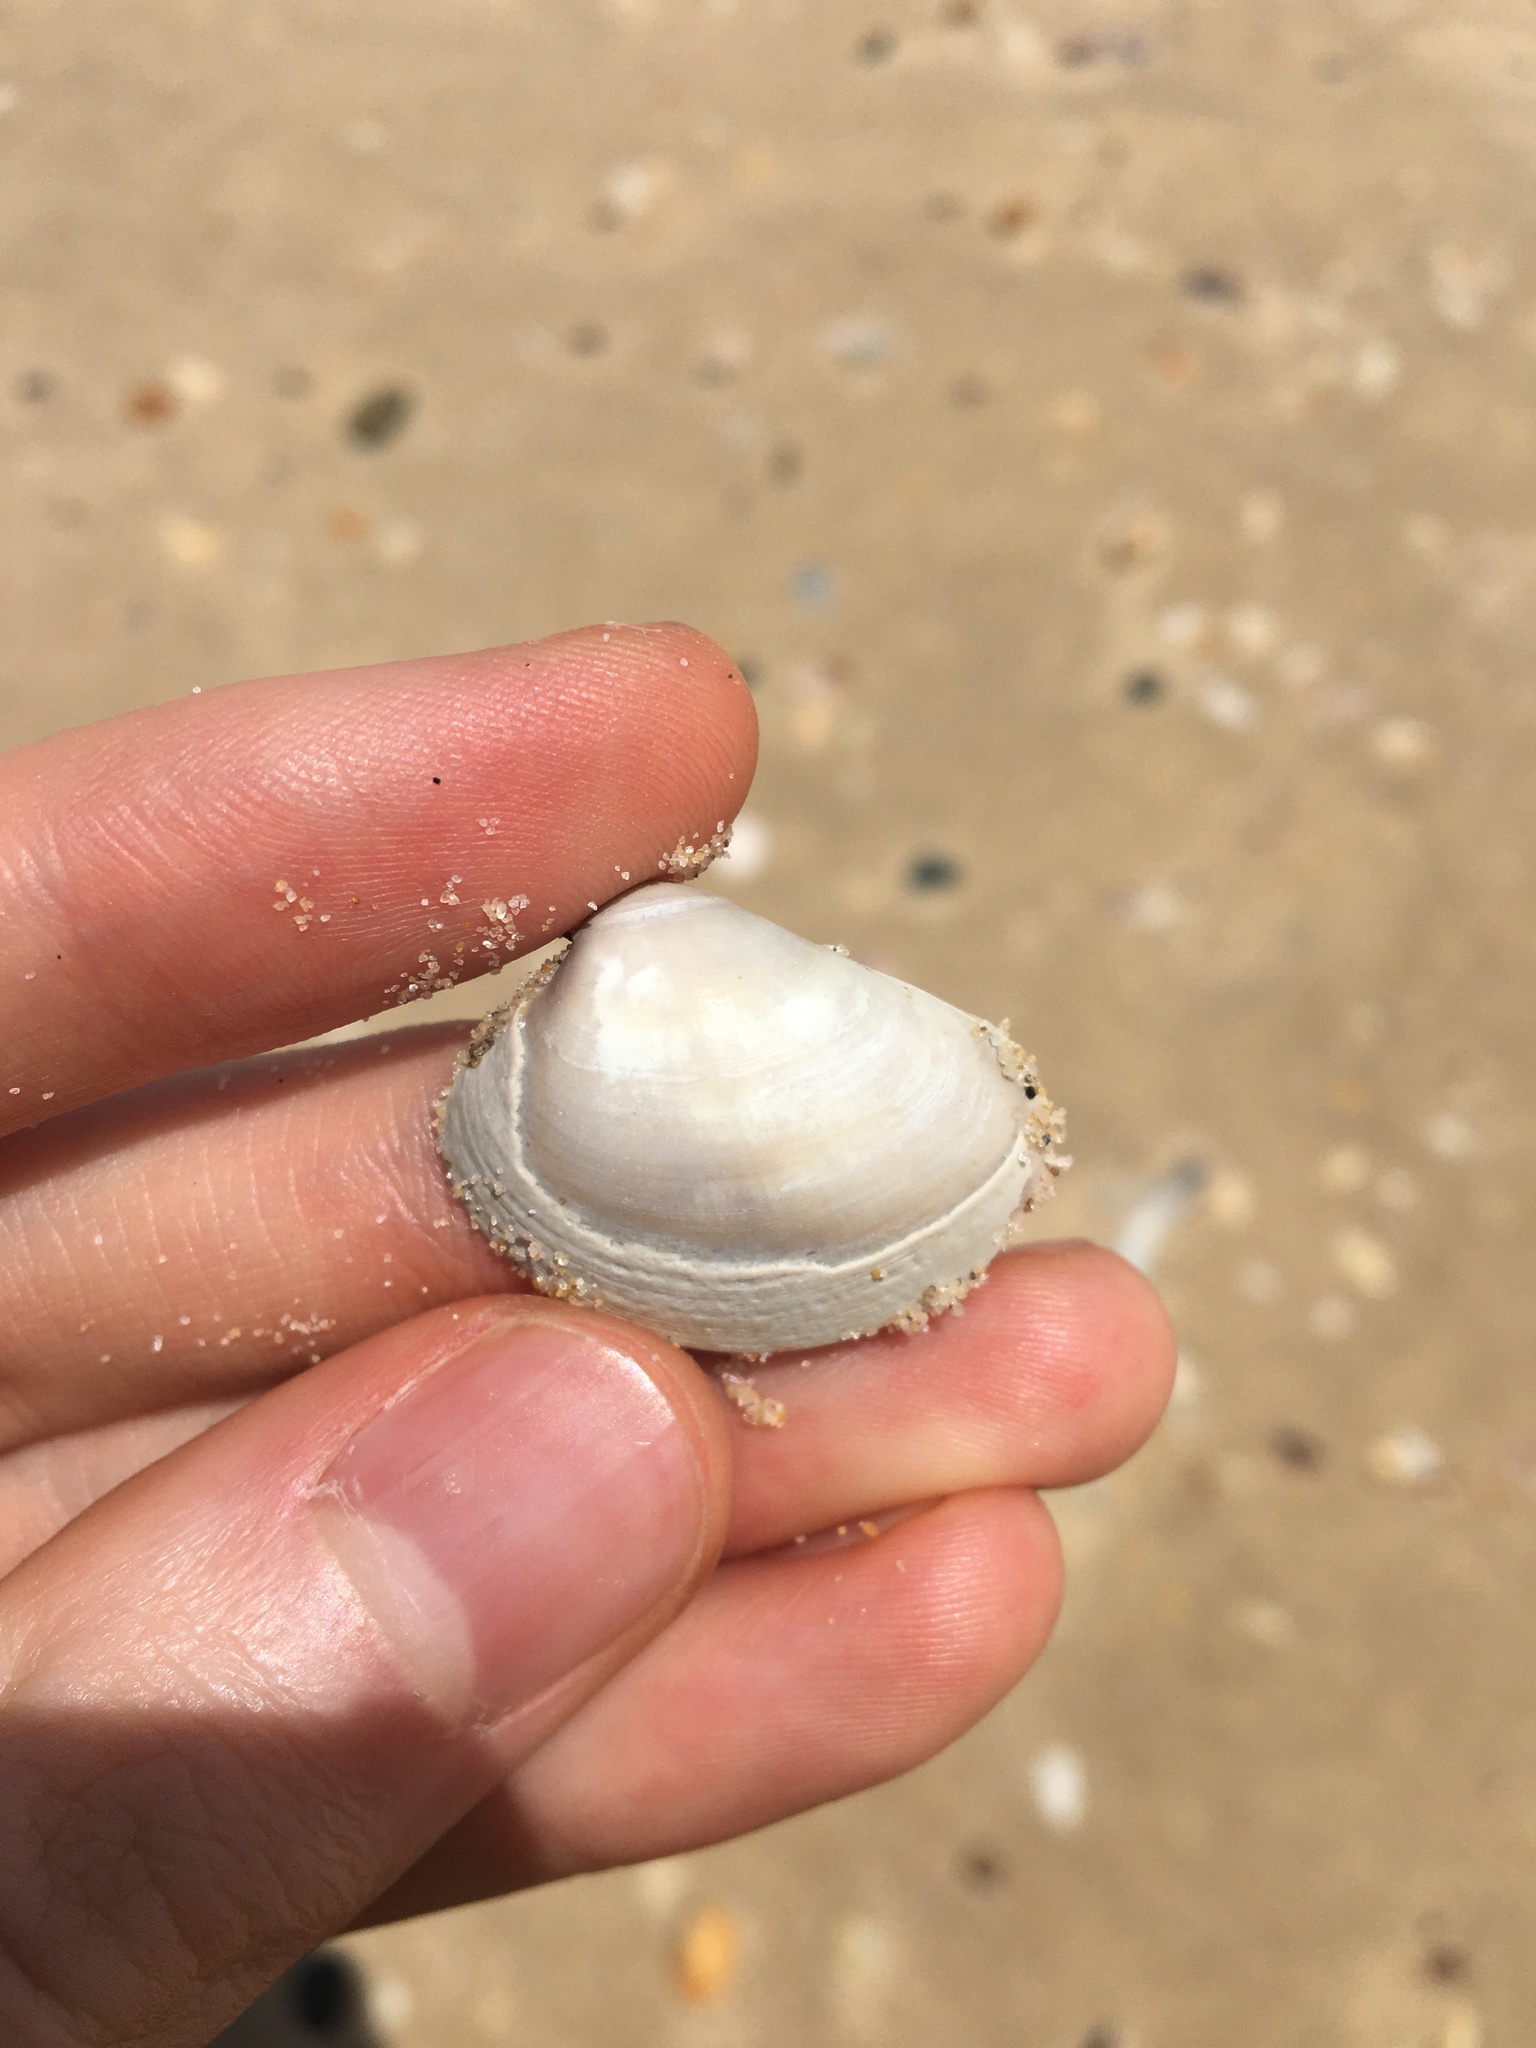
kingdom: Animalia
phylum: Mollusca
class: Bivalvia
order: Venerida
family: Veneridae
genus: Eumarcia
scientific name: Eumarcia fumigata
